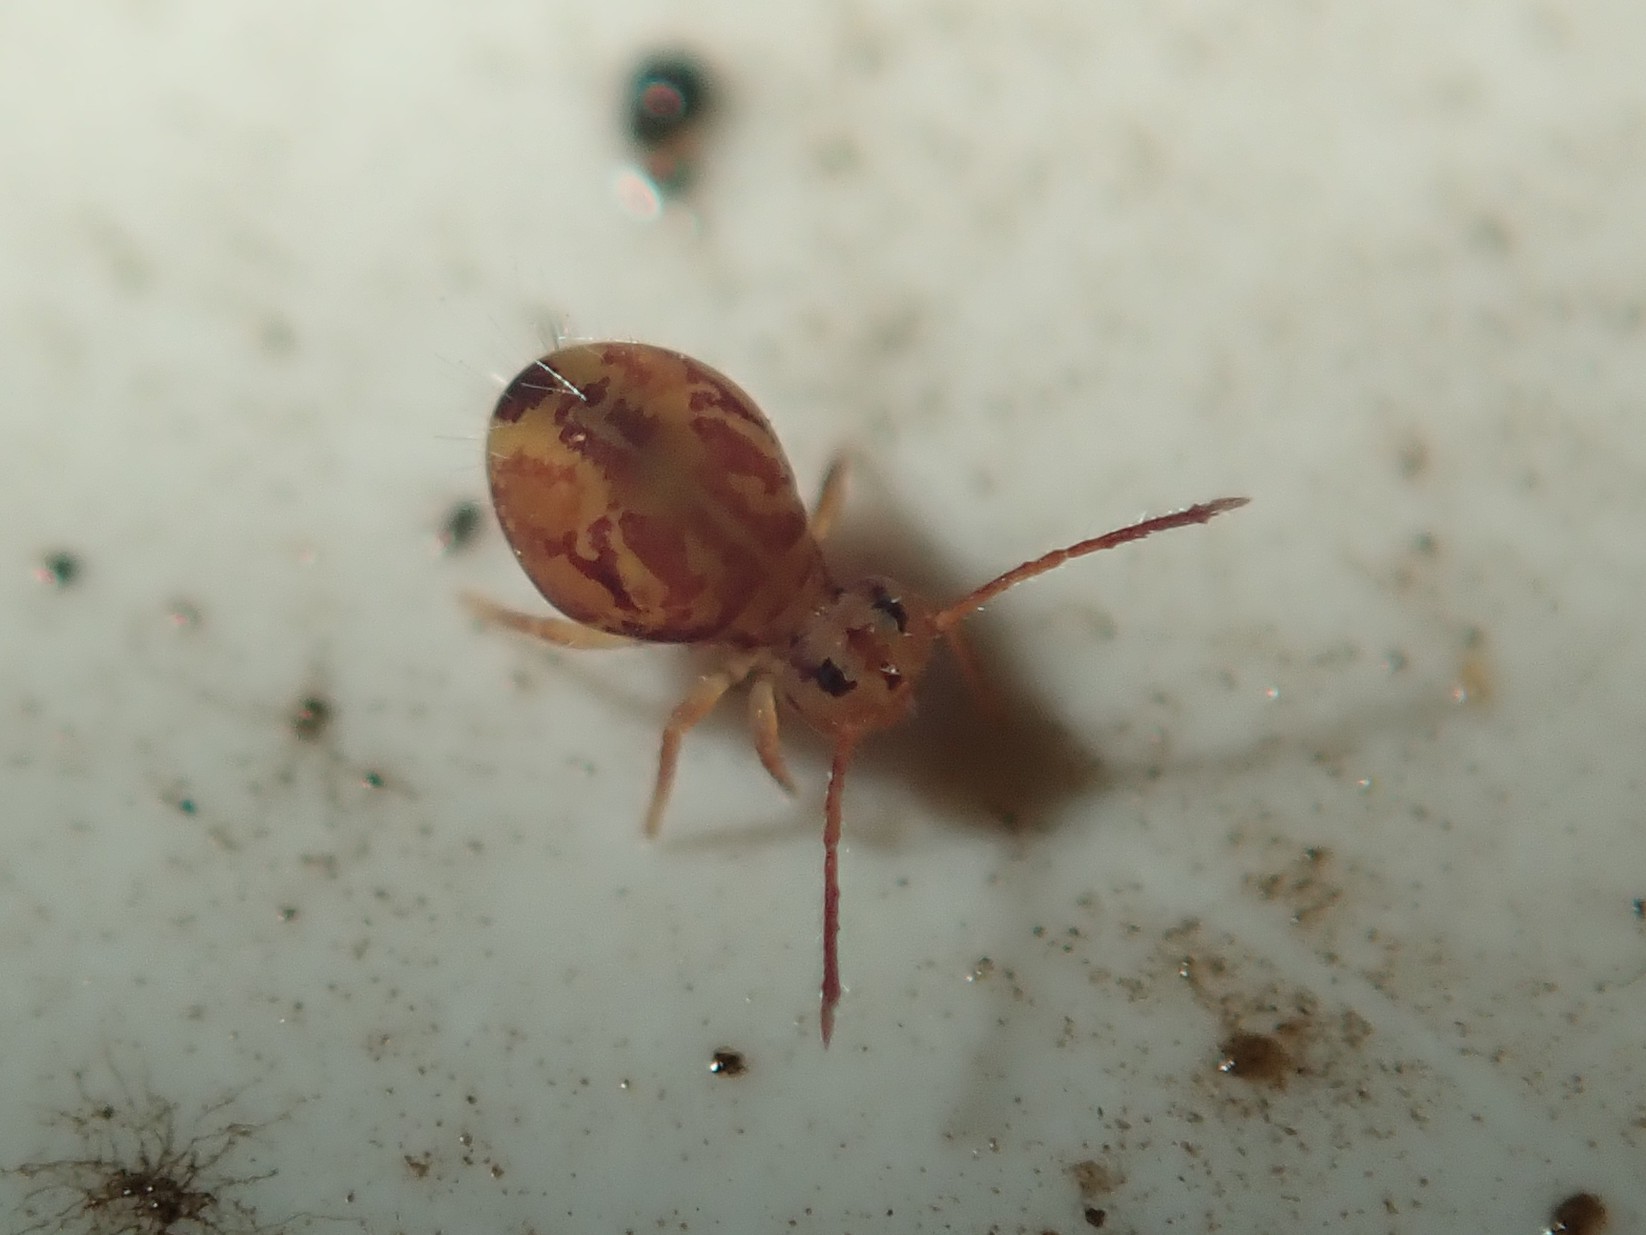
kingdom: Animalia
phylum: Arthropoda
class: Collembola
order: Symphypleona
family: Dicyrtomidae
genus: Dicyrtomina
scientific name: Dicyrtomina ornata
